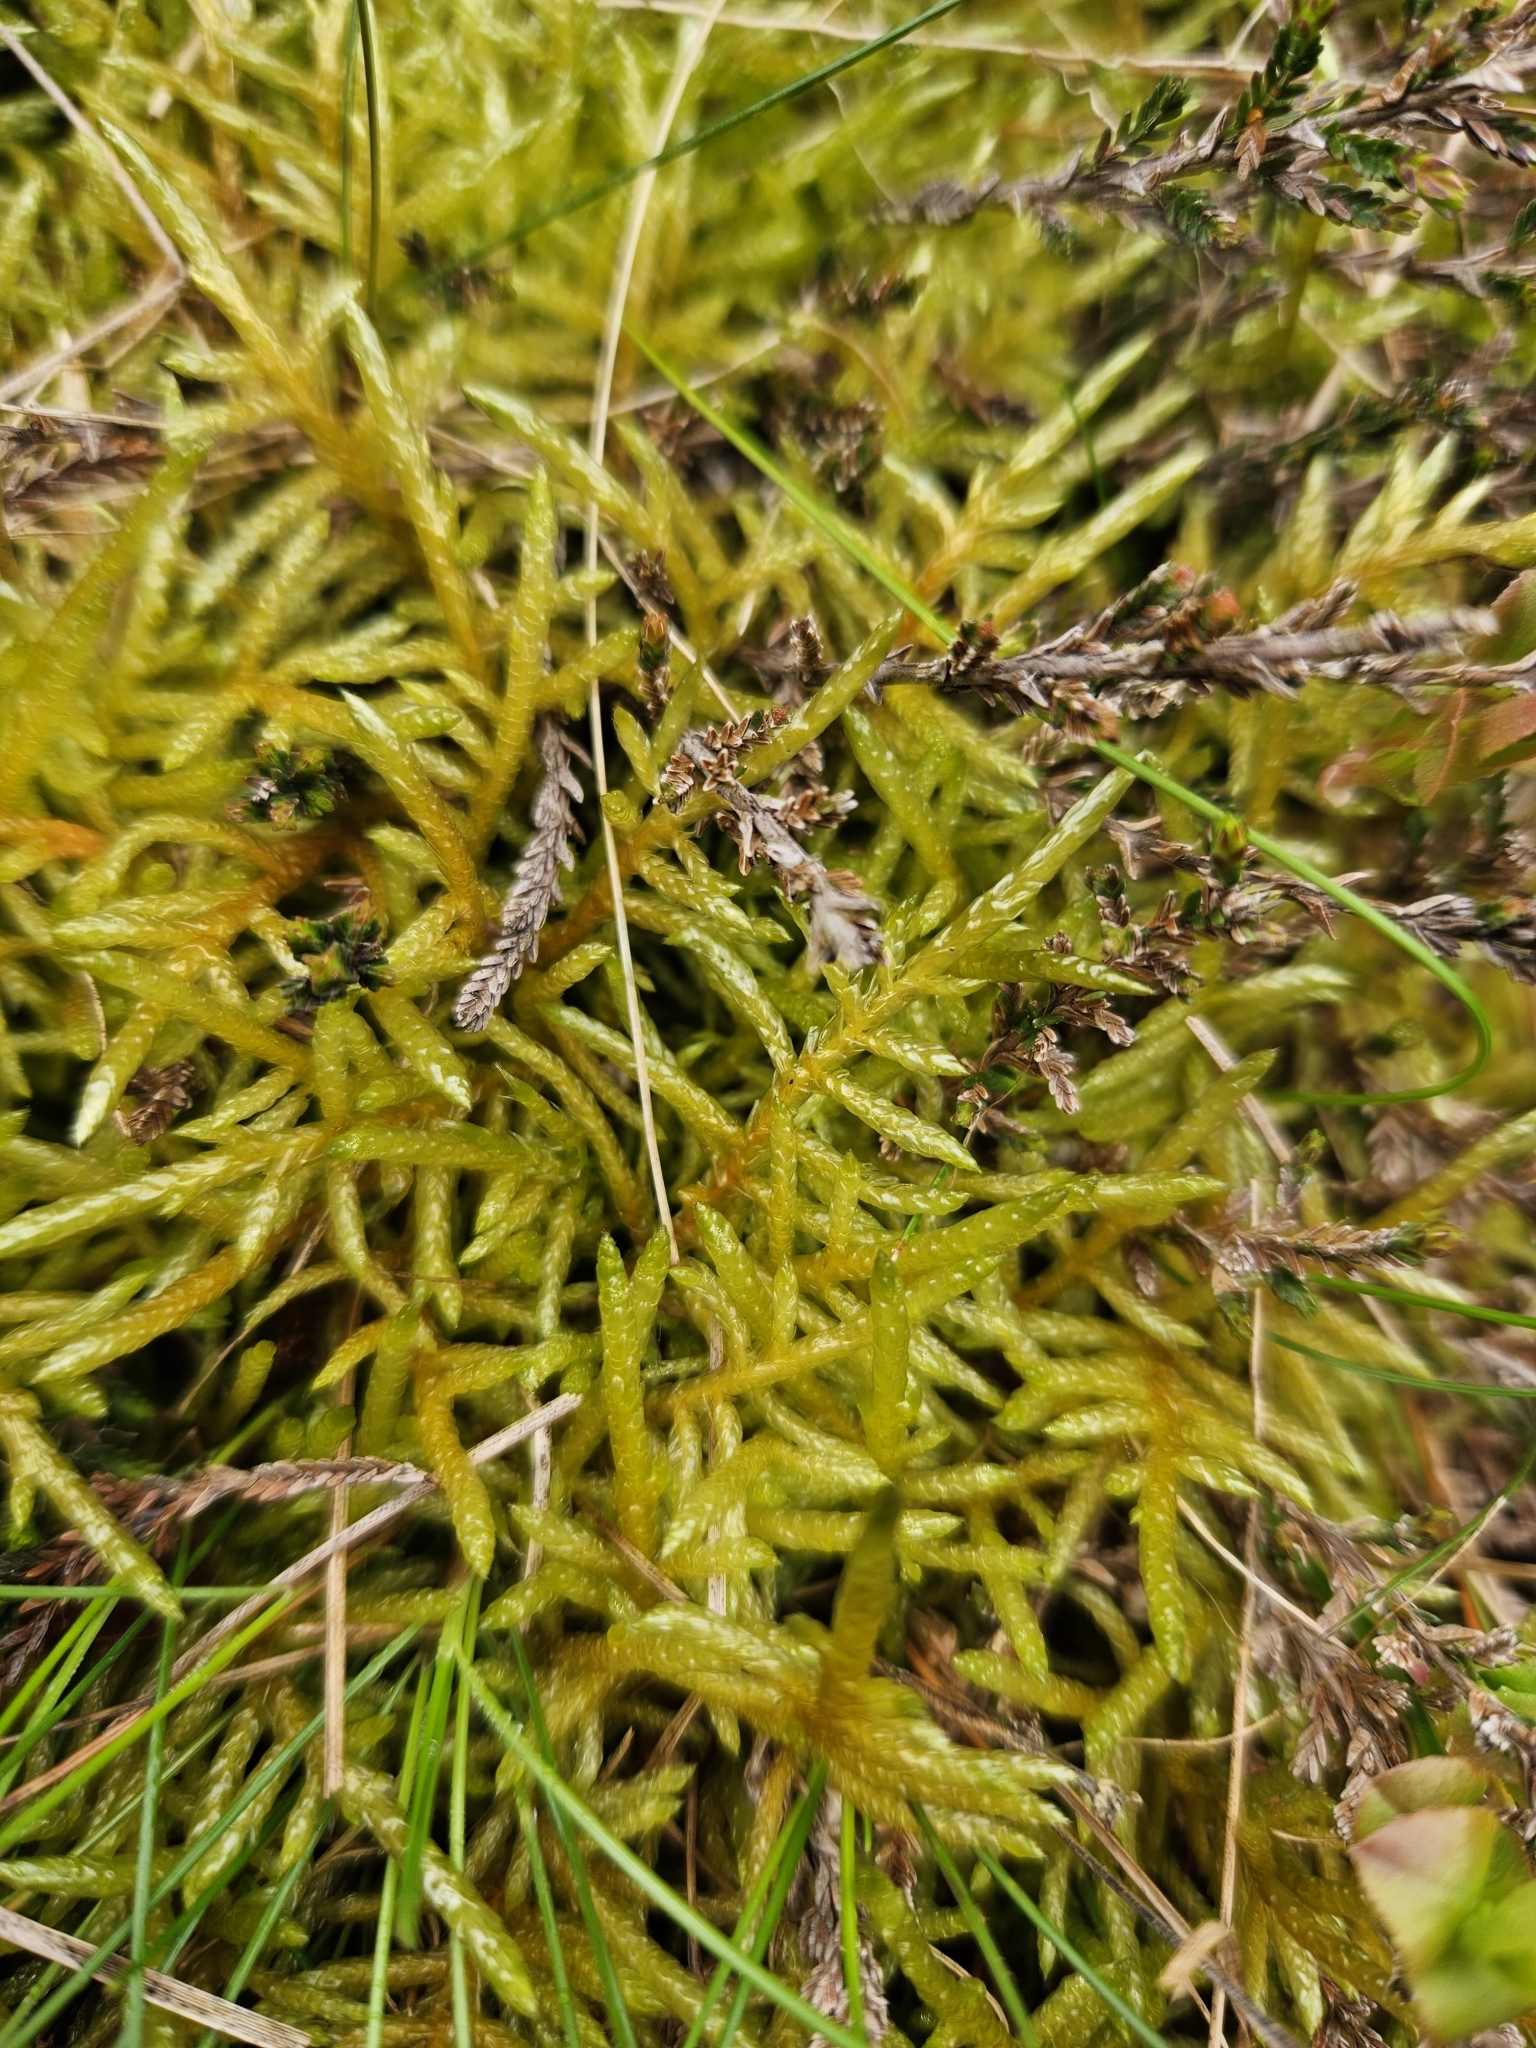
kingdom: Plantae
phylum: Bryophyta
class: Bryopsida
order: Hypnales
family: Brachytheciaceae
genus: Pseudoscleropodium
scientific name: Pseudoscleropodium purum
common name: Neat feather-moss
